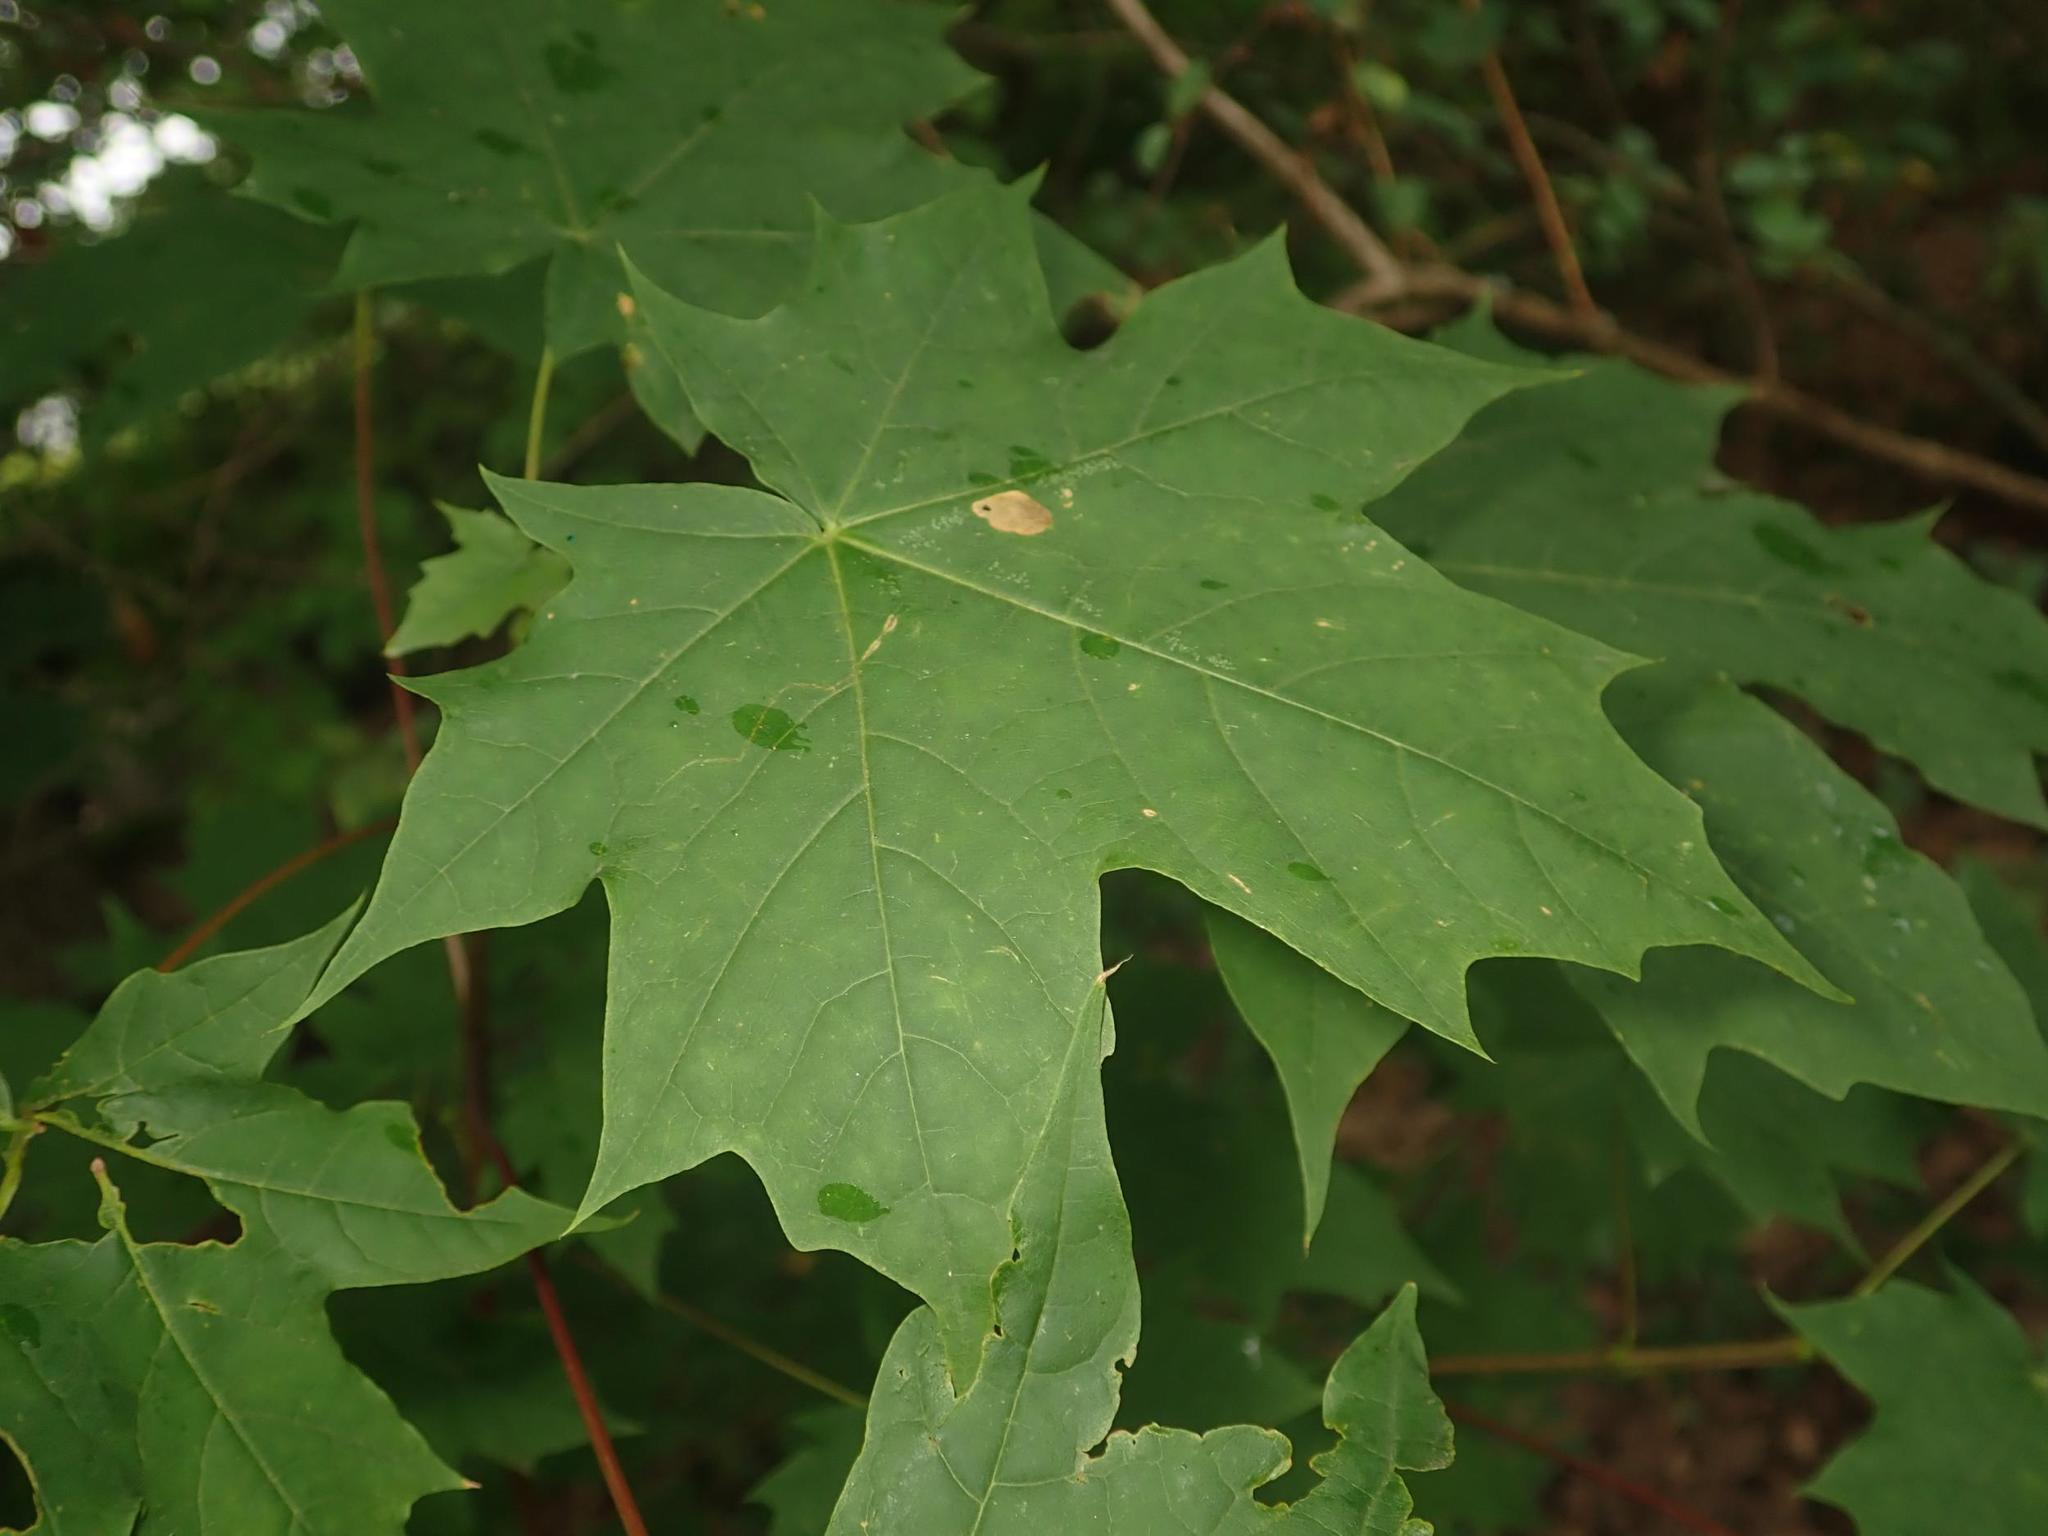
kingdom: Plantae
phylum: Tracheophyta
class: Magnoliopsida
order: Sapindales
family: Sapindaceae
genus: Acer
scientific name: Acer platanoides
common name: Norway maple
